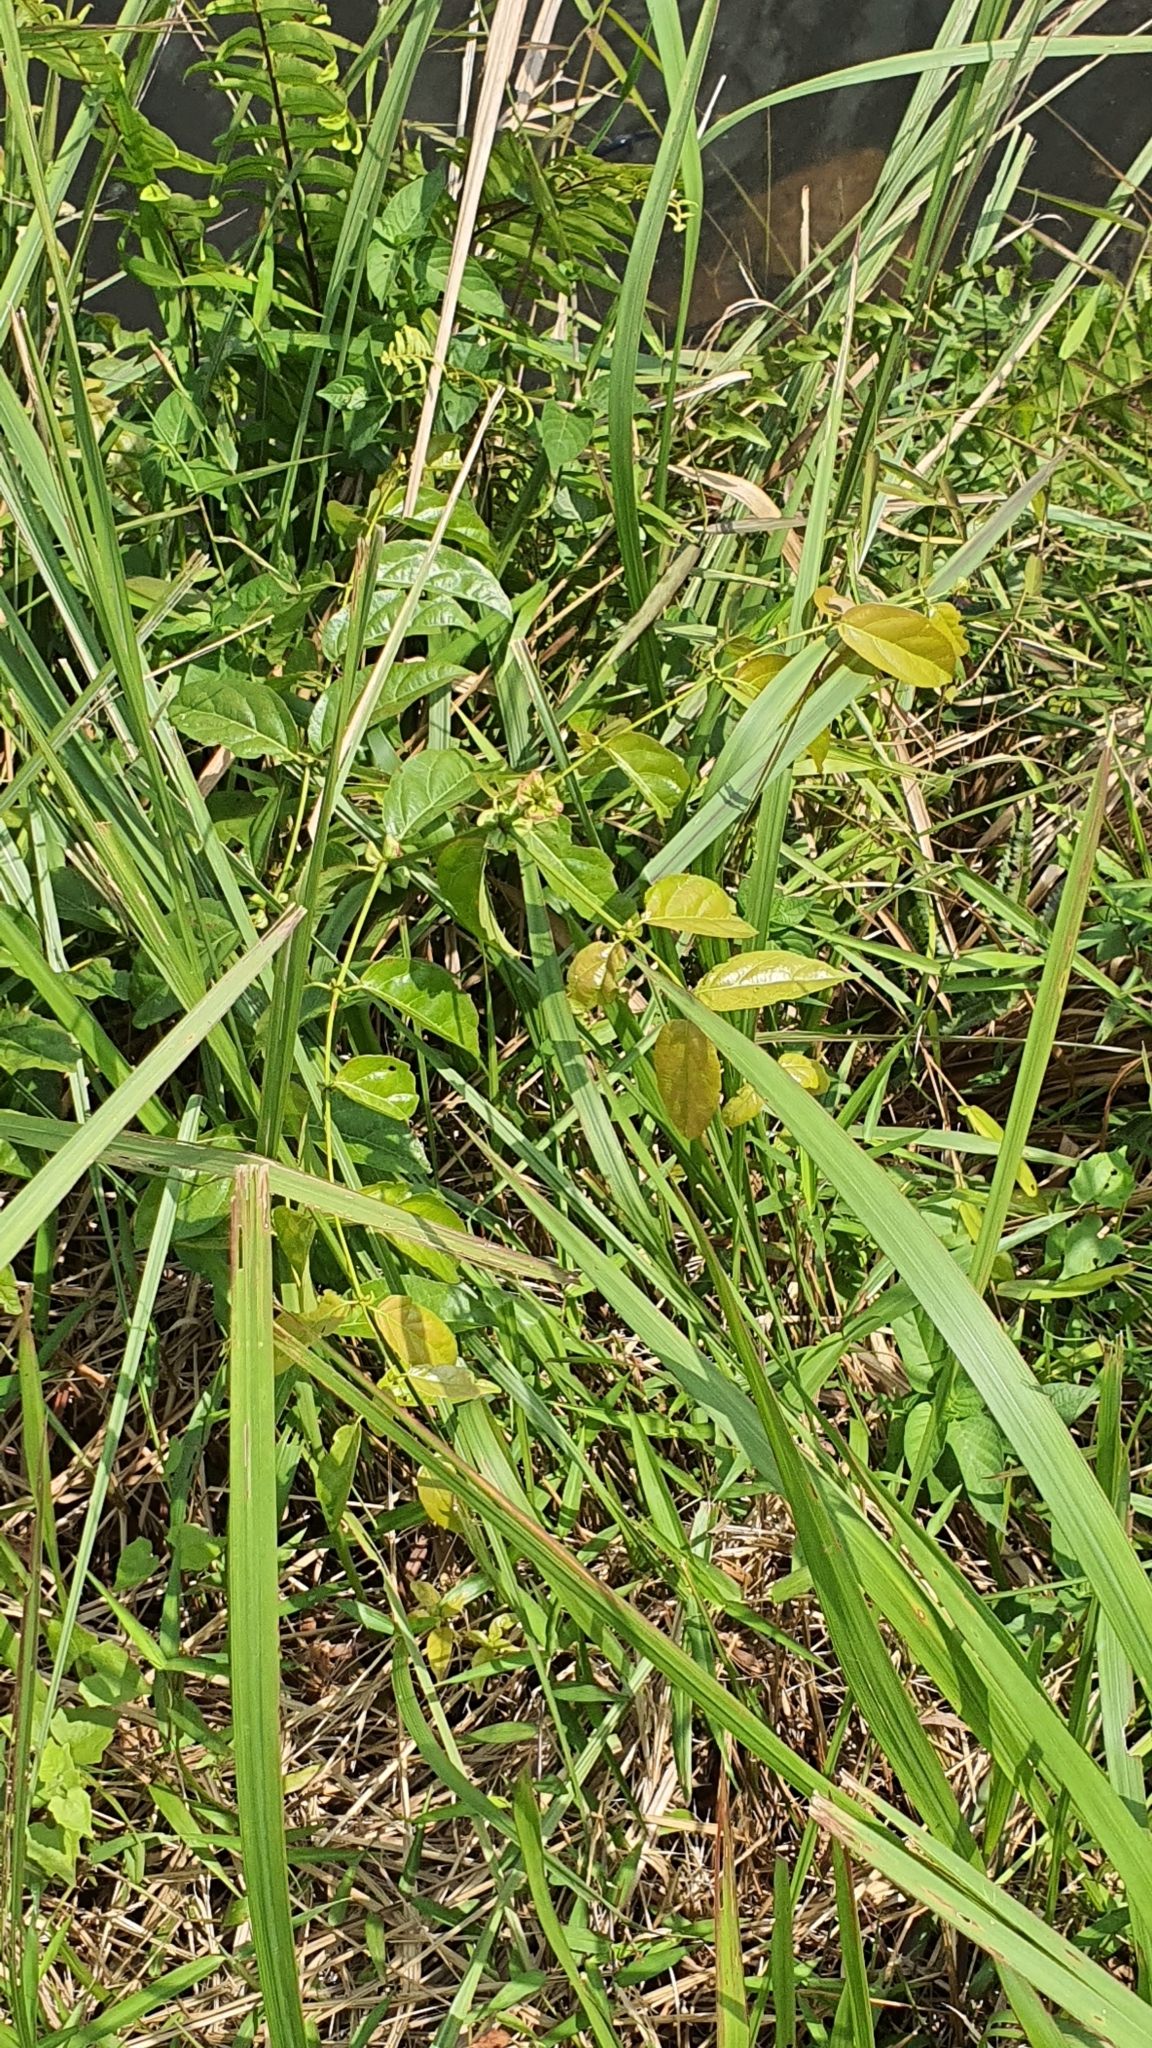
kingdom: Plantae
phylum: Tracheophyta
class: Magnoliopsida
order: Gentianales
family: Rubiaceae
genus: Uncaria
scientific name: Uncaria gambir
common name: Pale catechu
